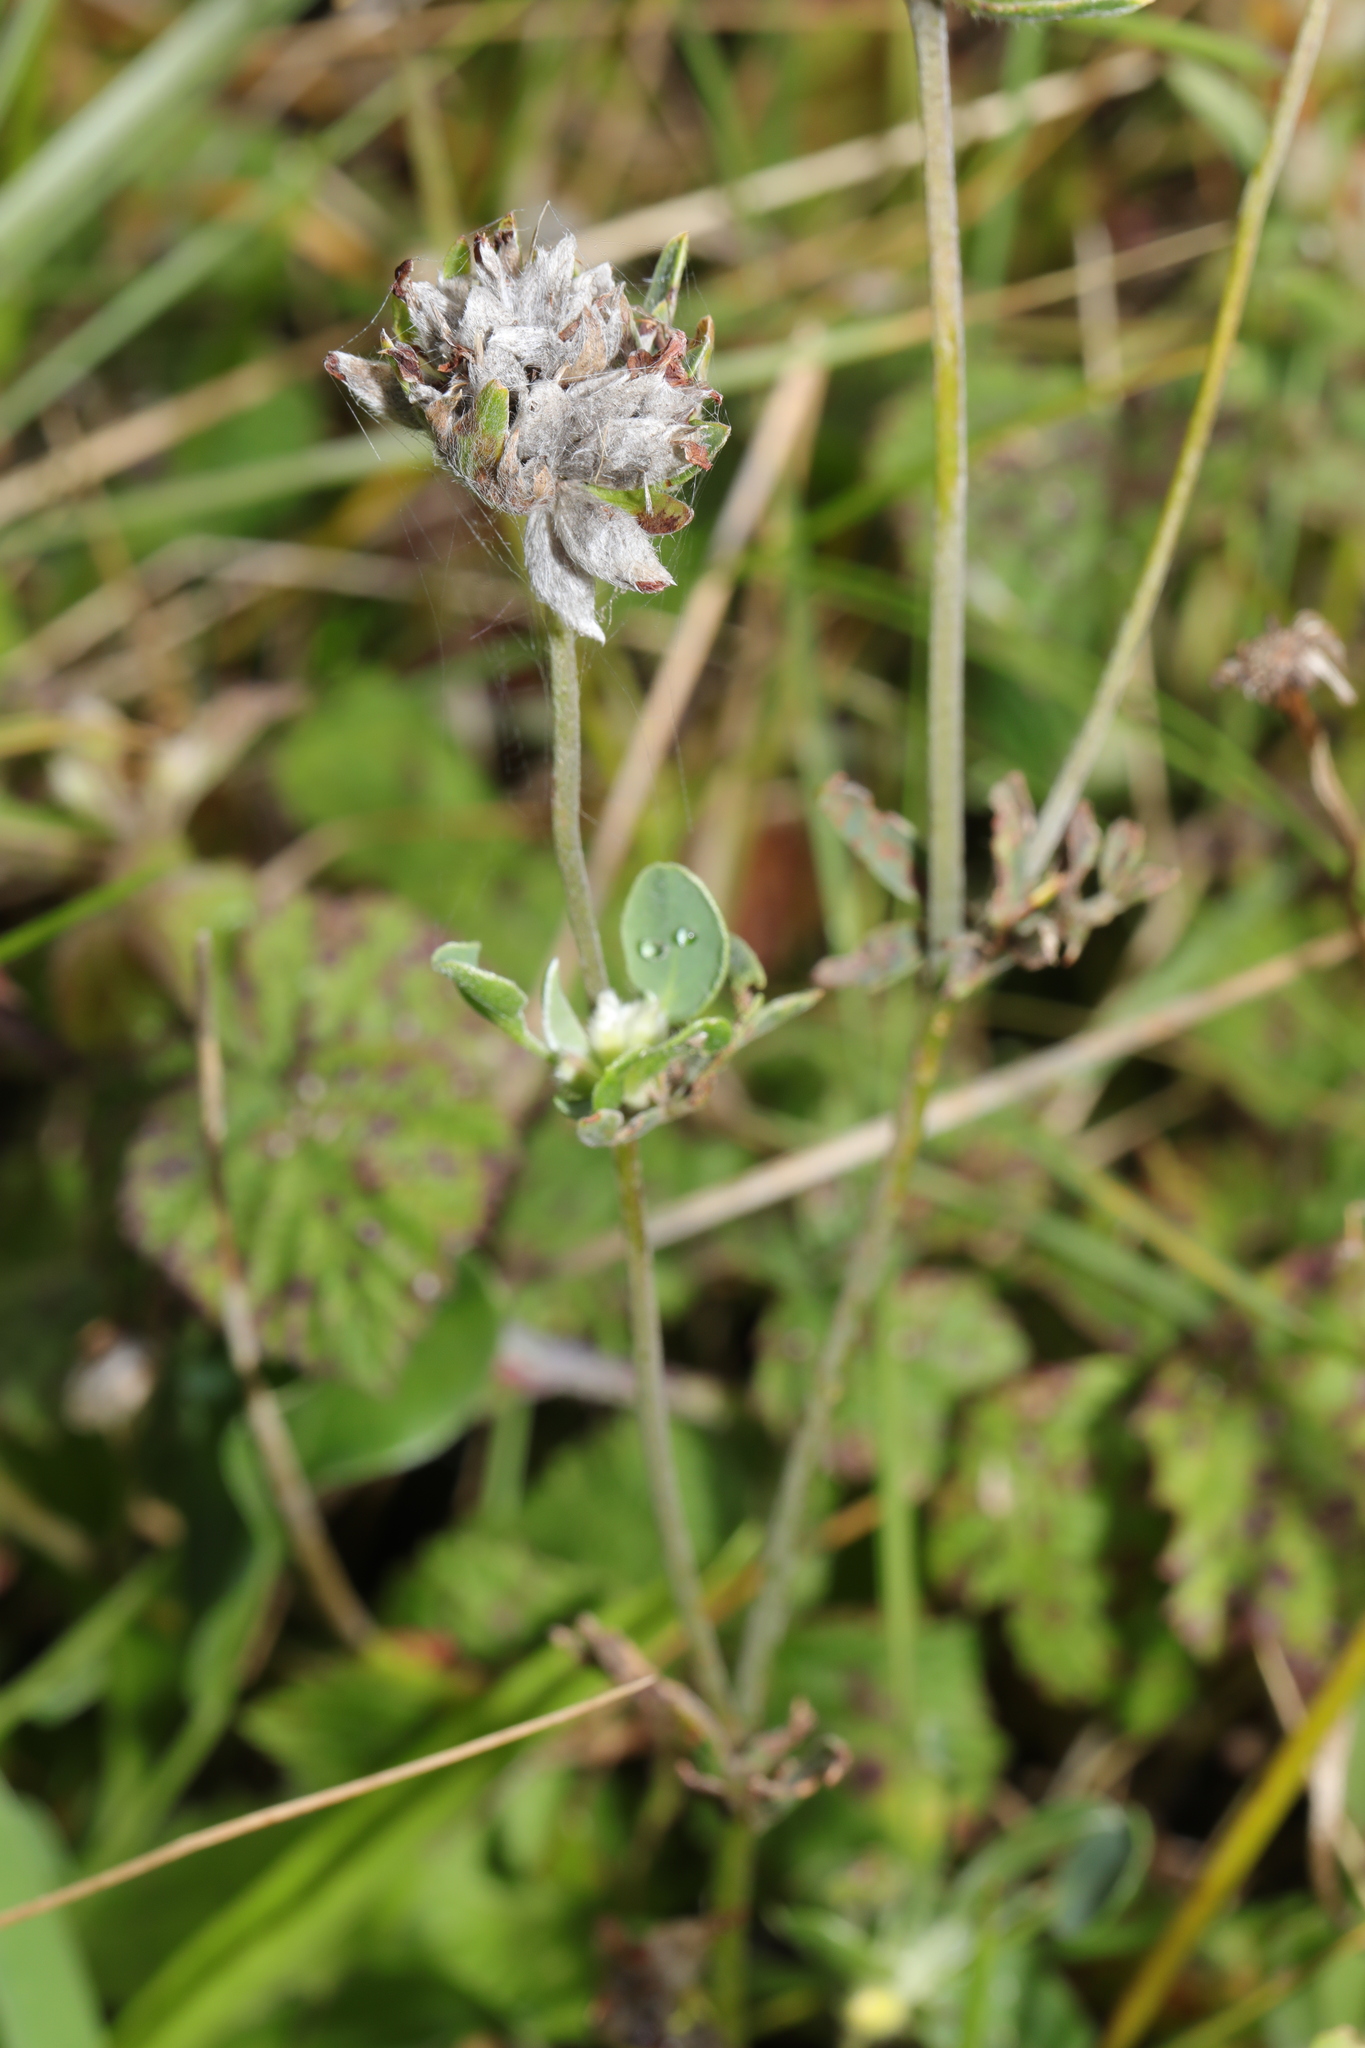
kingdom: Plantae
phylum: Tracheophyta
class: Magnoliopsida
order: Fabales
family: Fabaceae
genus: Anthyllis
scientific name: Anthyllis vulneraria
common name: Kidney vetch
